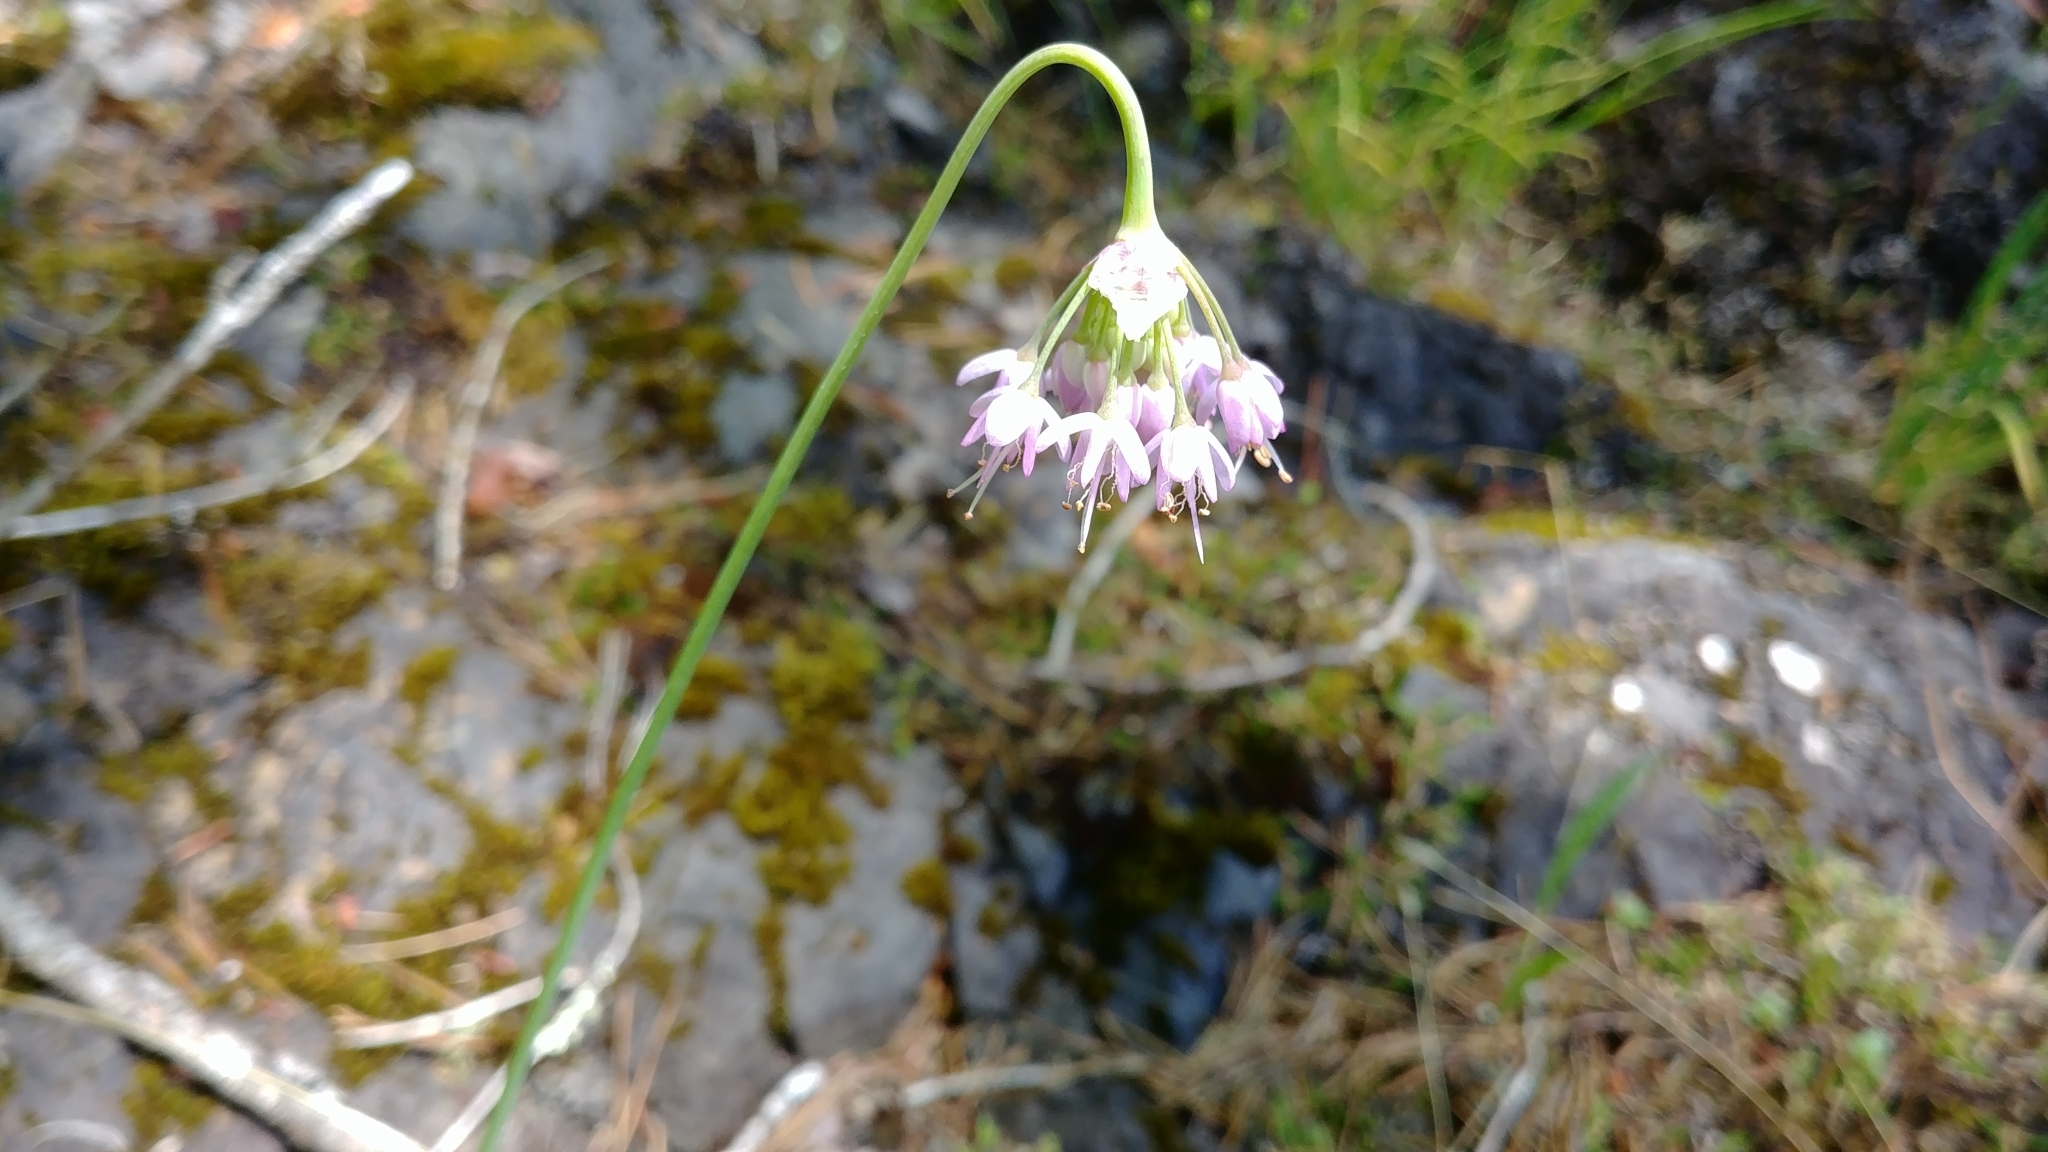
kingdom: Plantae
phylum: Tracheophyta
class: Liliopsida
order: Asparagales
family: Amaryllidaceae
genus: Allium
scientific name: Allium cernuum
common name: Nodding onion
